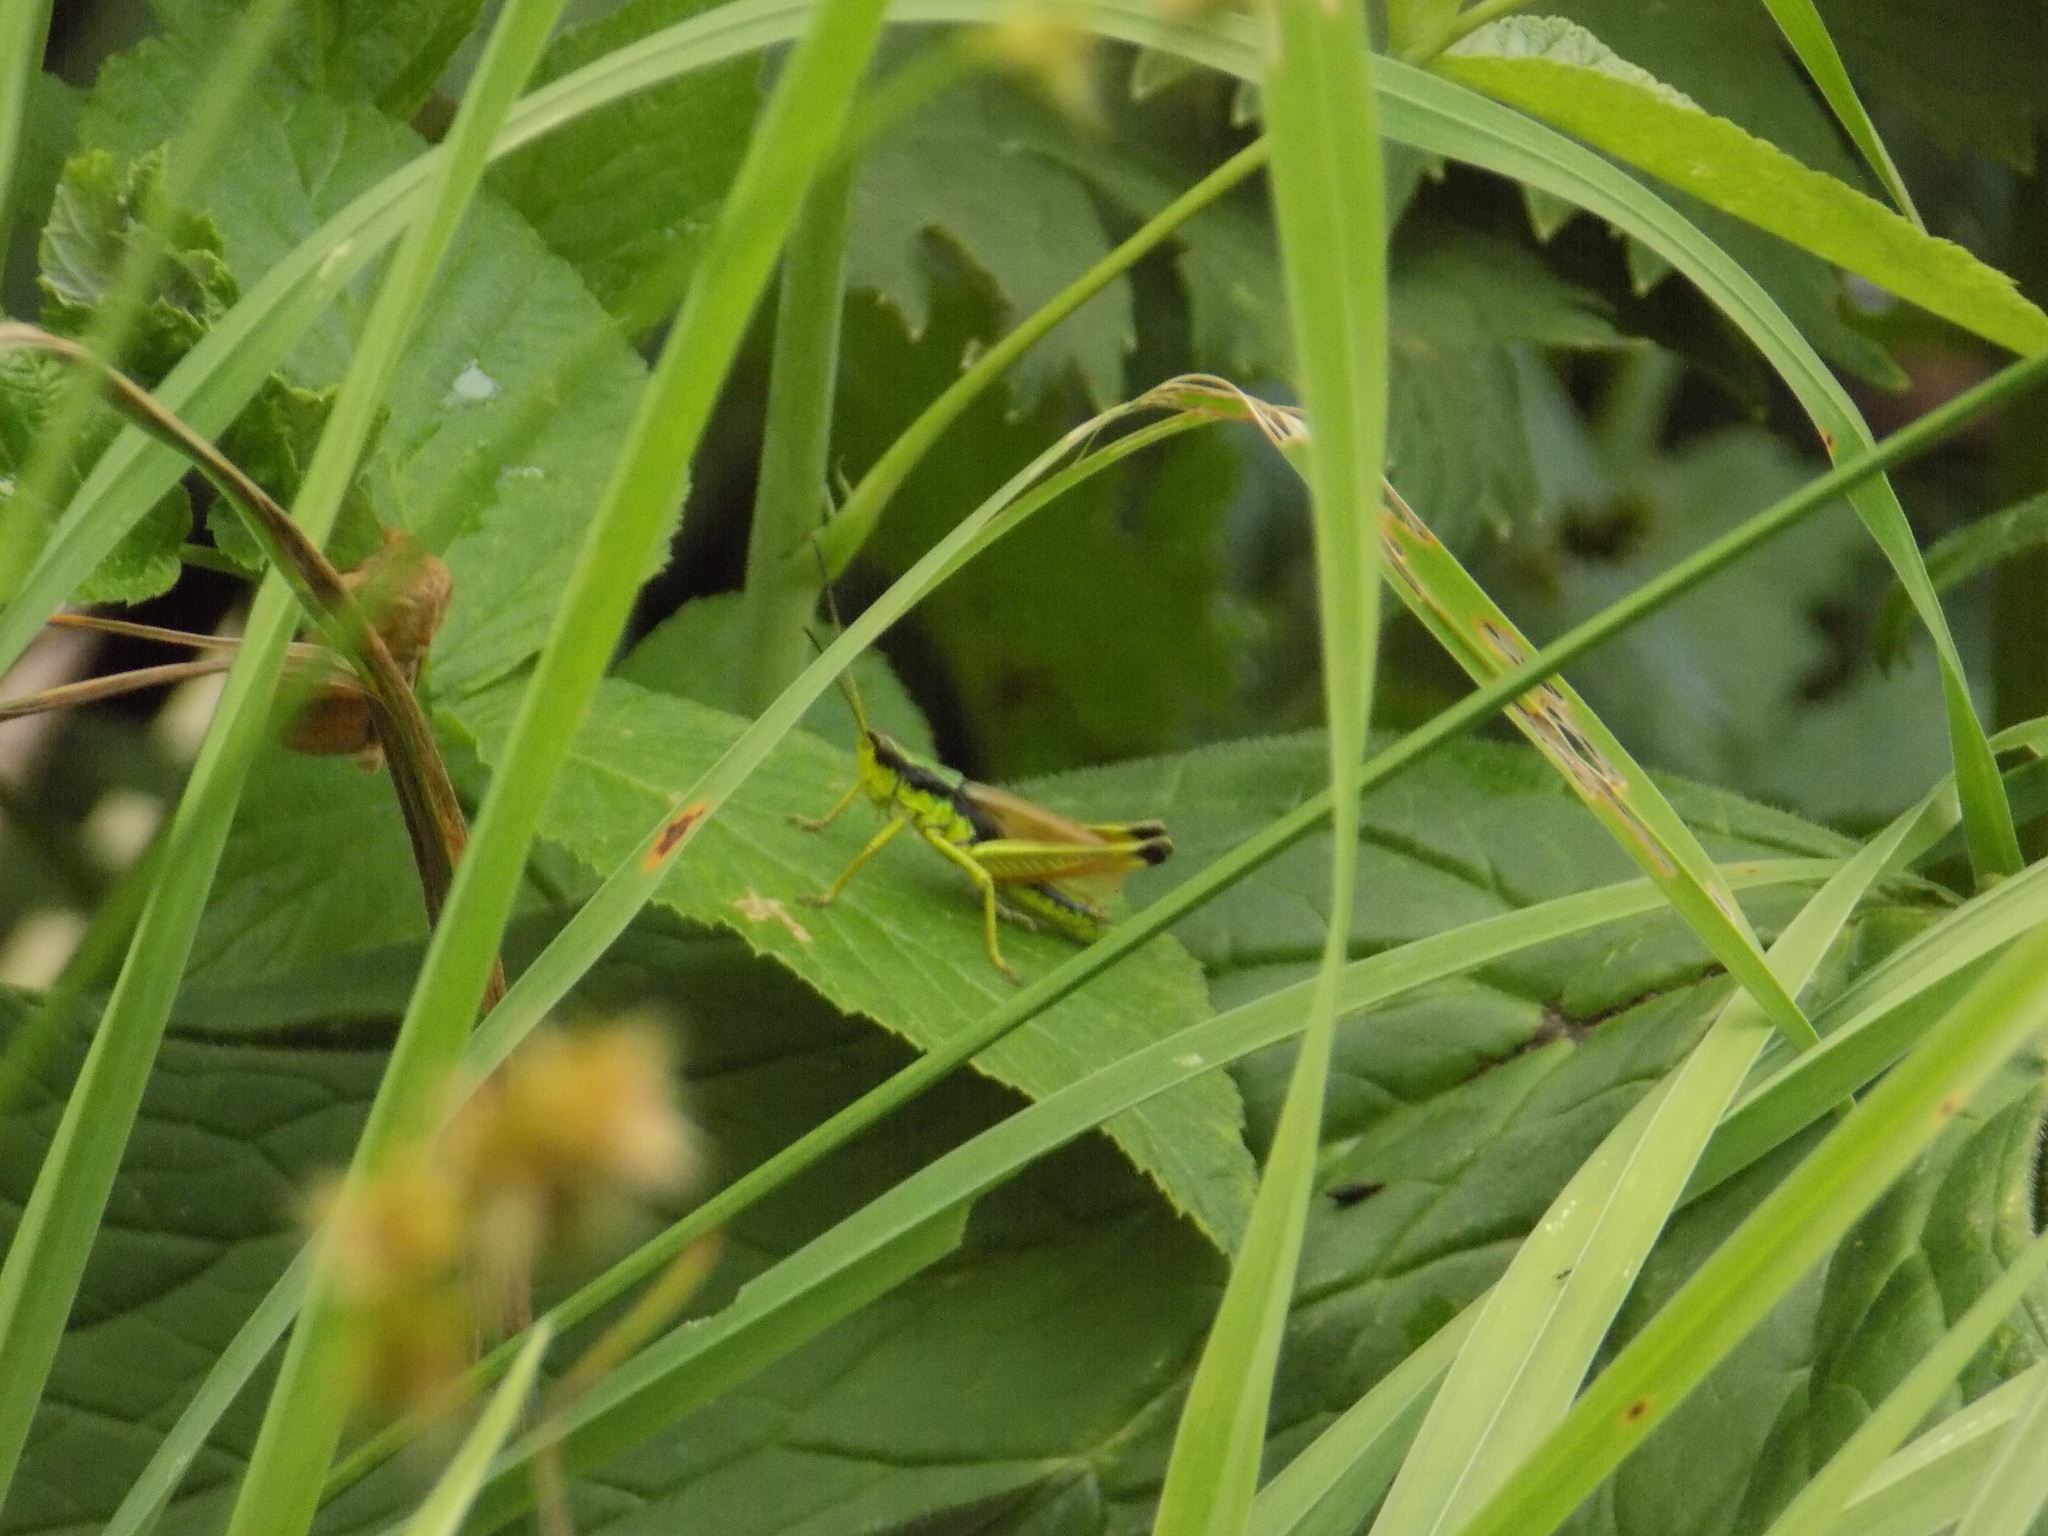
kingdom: Animalia
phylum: Arthropoda
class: Insecta
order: Orthoptera
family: Acrididae
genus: Podismopsis
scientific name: Podismopsis poppiusi
